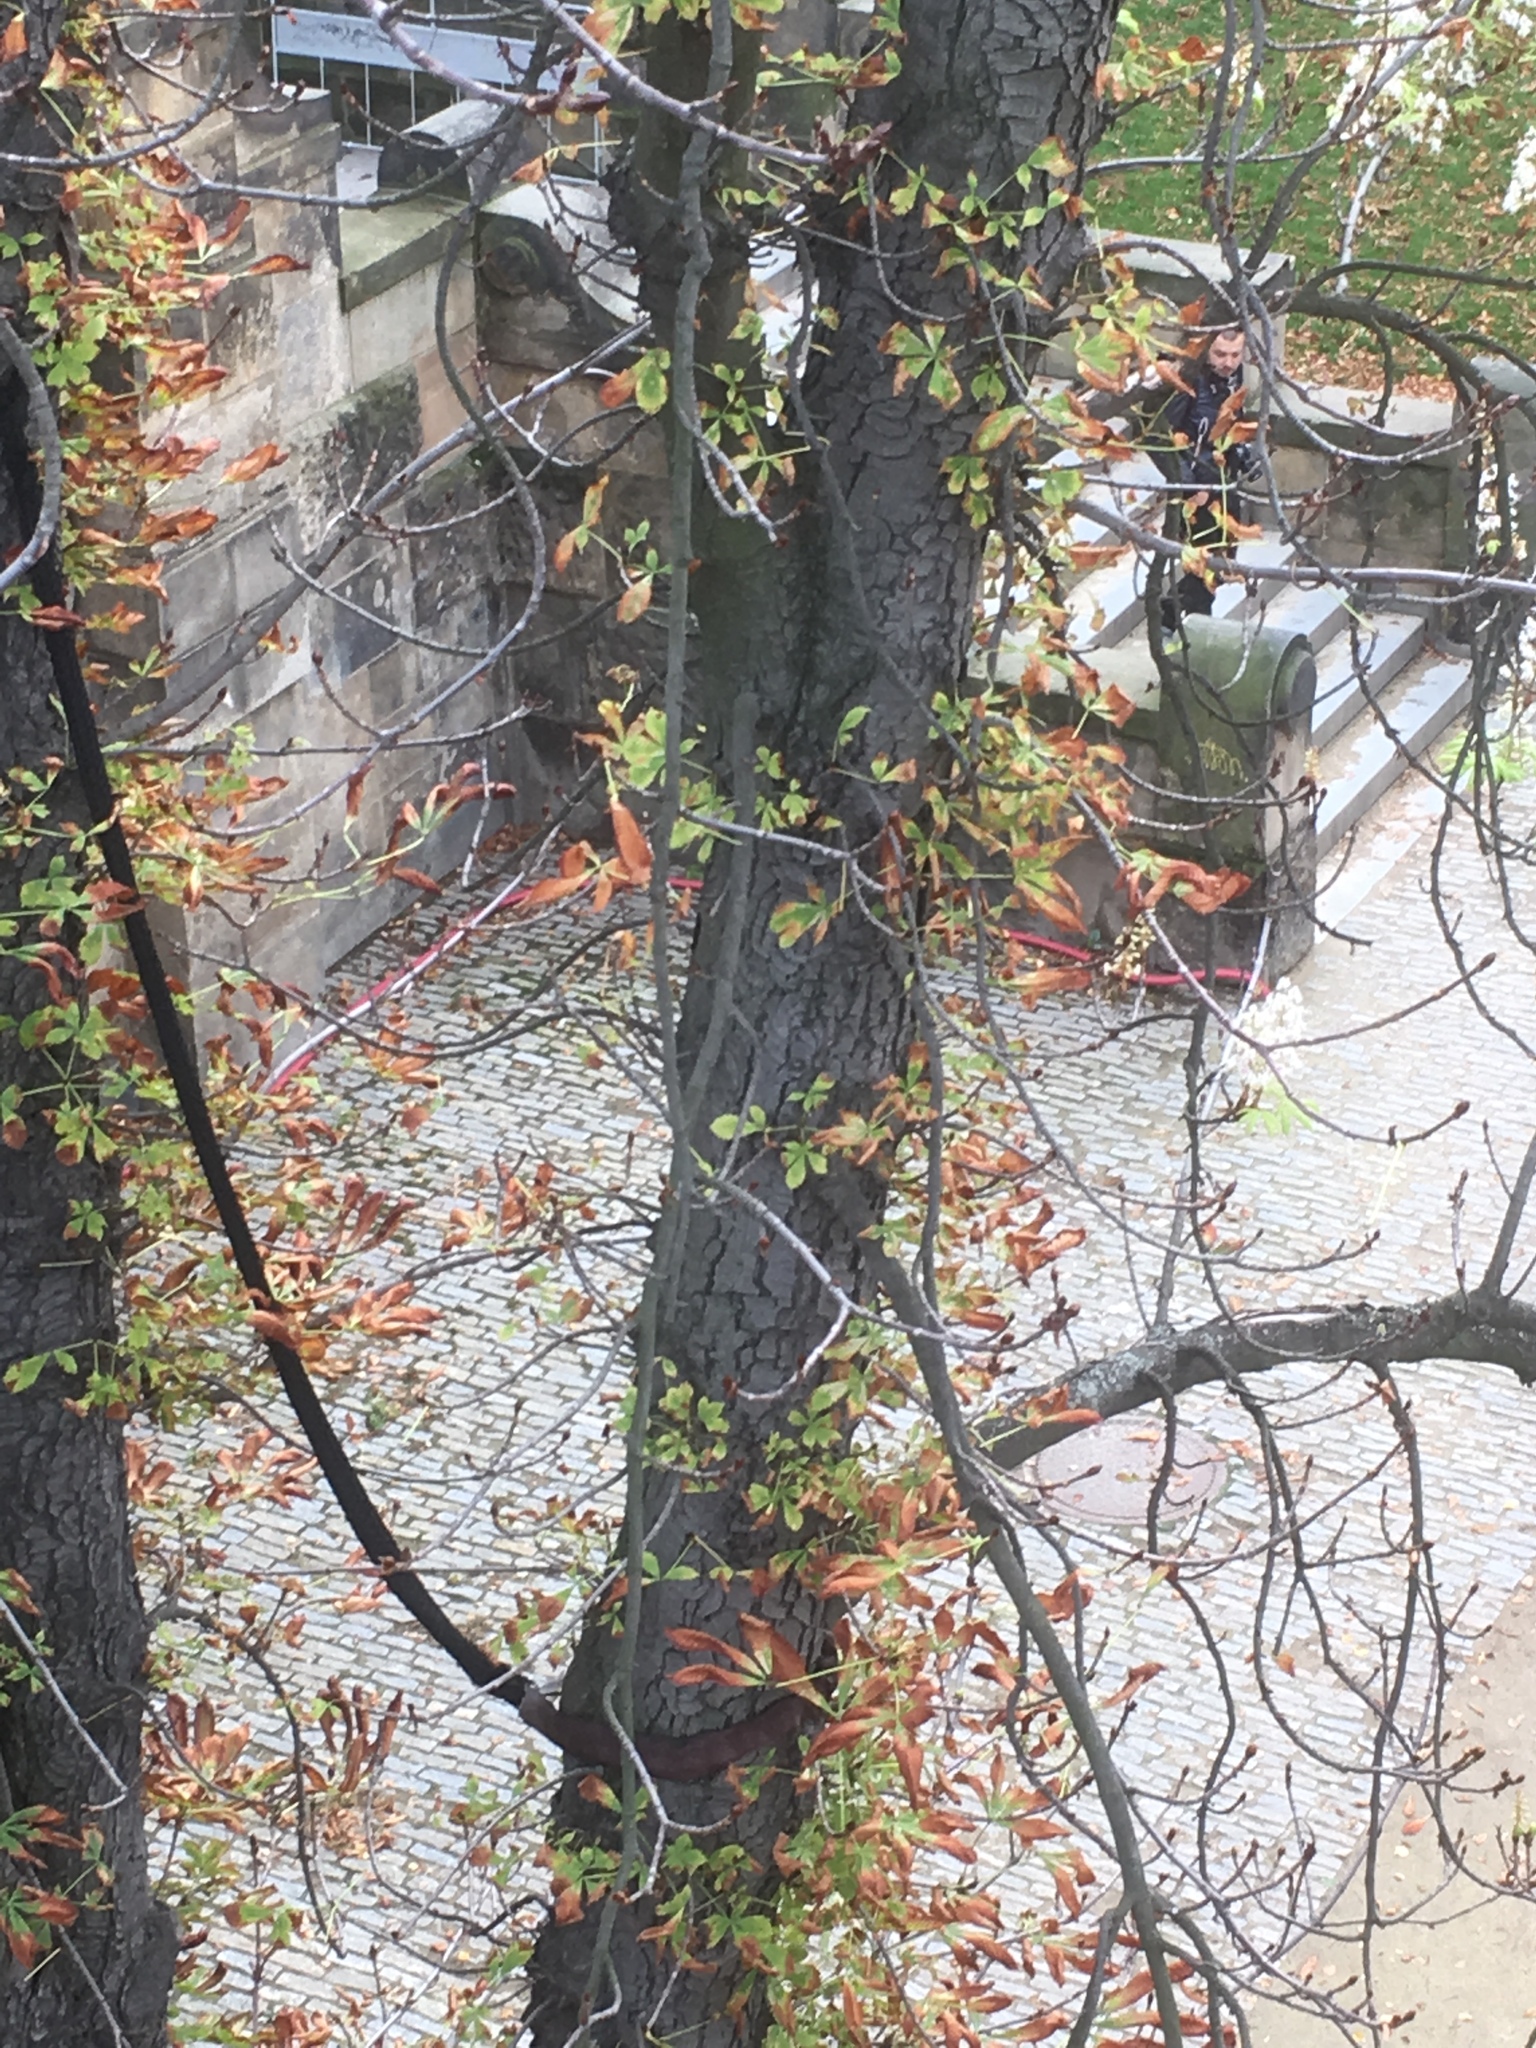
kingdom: Plantae
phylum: Tracheophyta
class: Magnoliopsida
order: Sapindales
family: Sapindaceae
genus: Aesculus
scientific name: Aesculus hippocastanum
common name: Horse-chestnut
